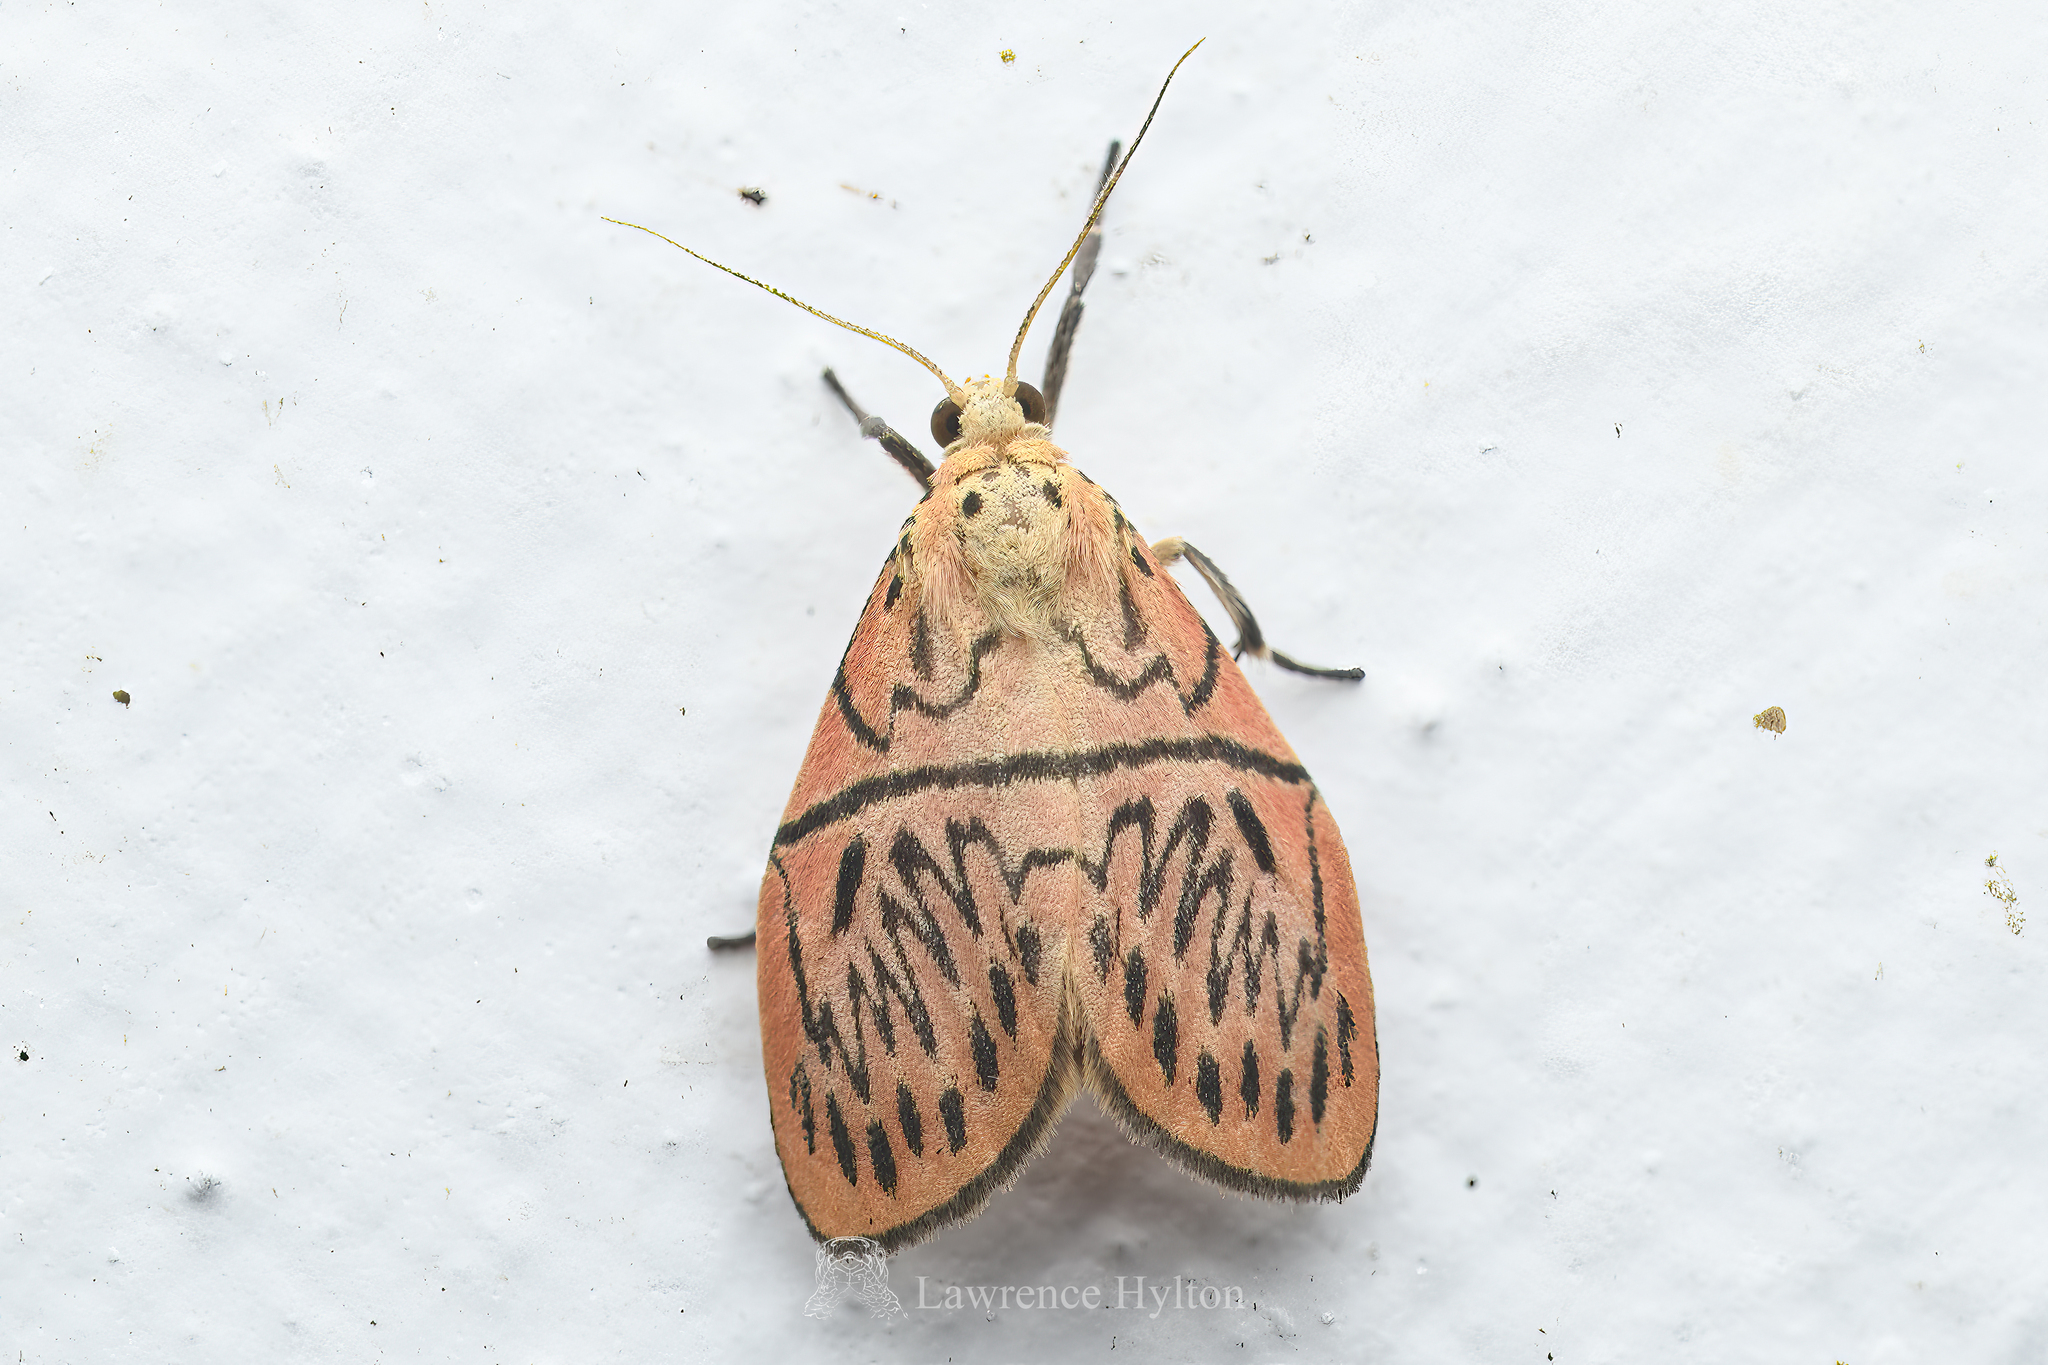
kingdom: Animalia
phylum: Arthropoda
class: Insecta
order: Lepidoptera
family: Erebidae
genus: Sesapa
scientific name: Sesapa honbaensis
